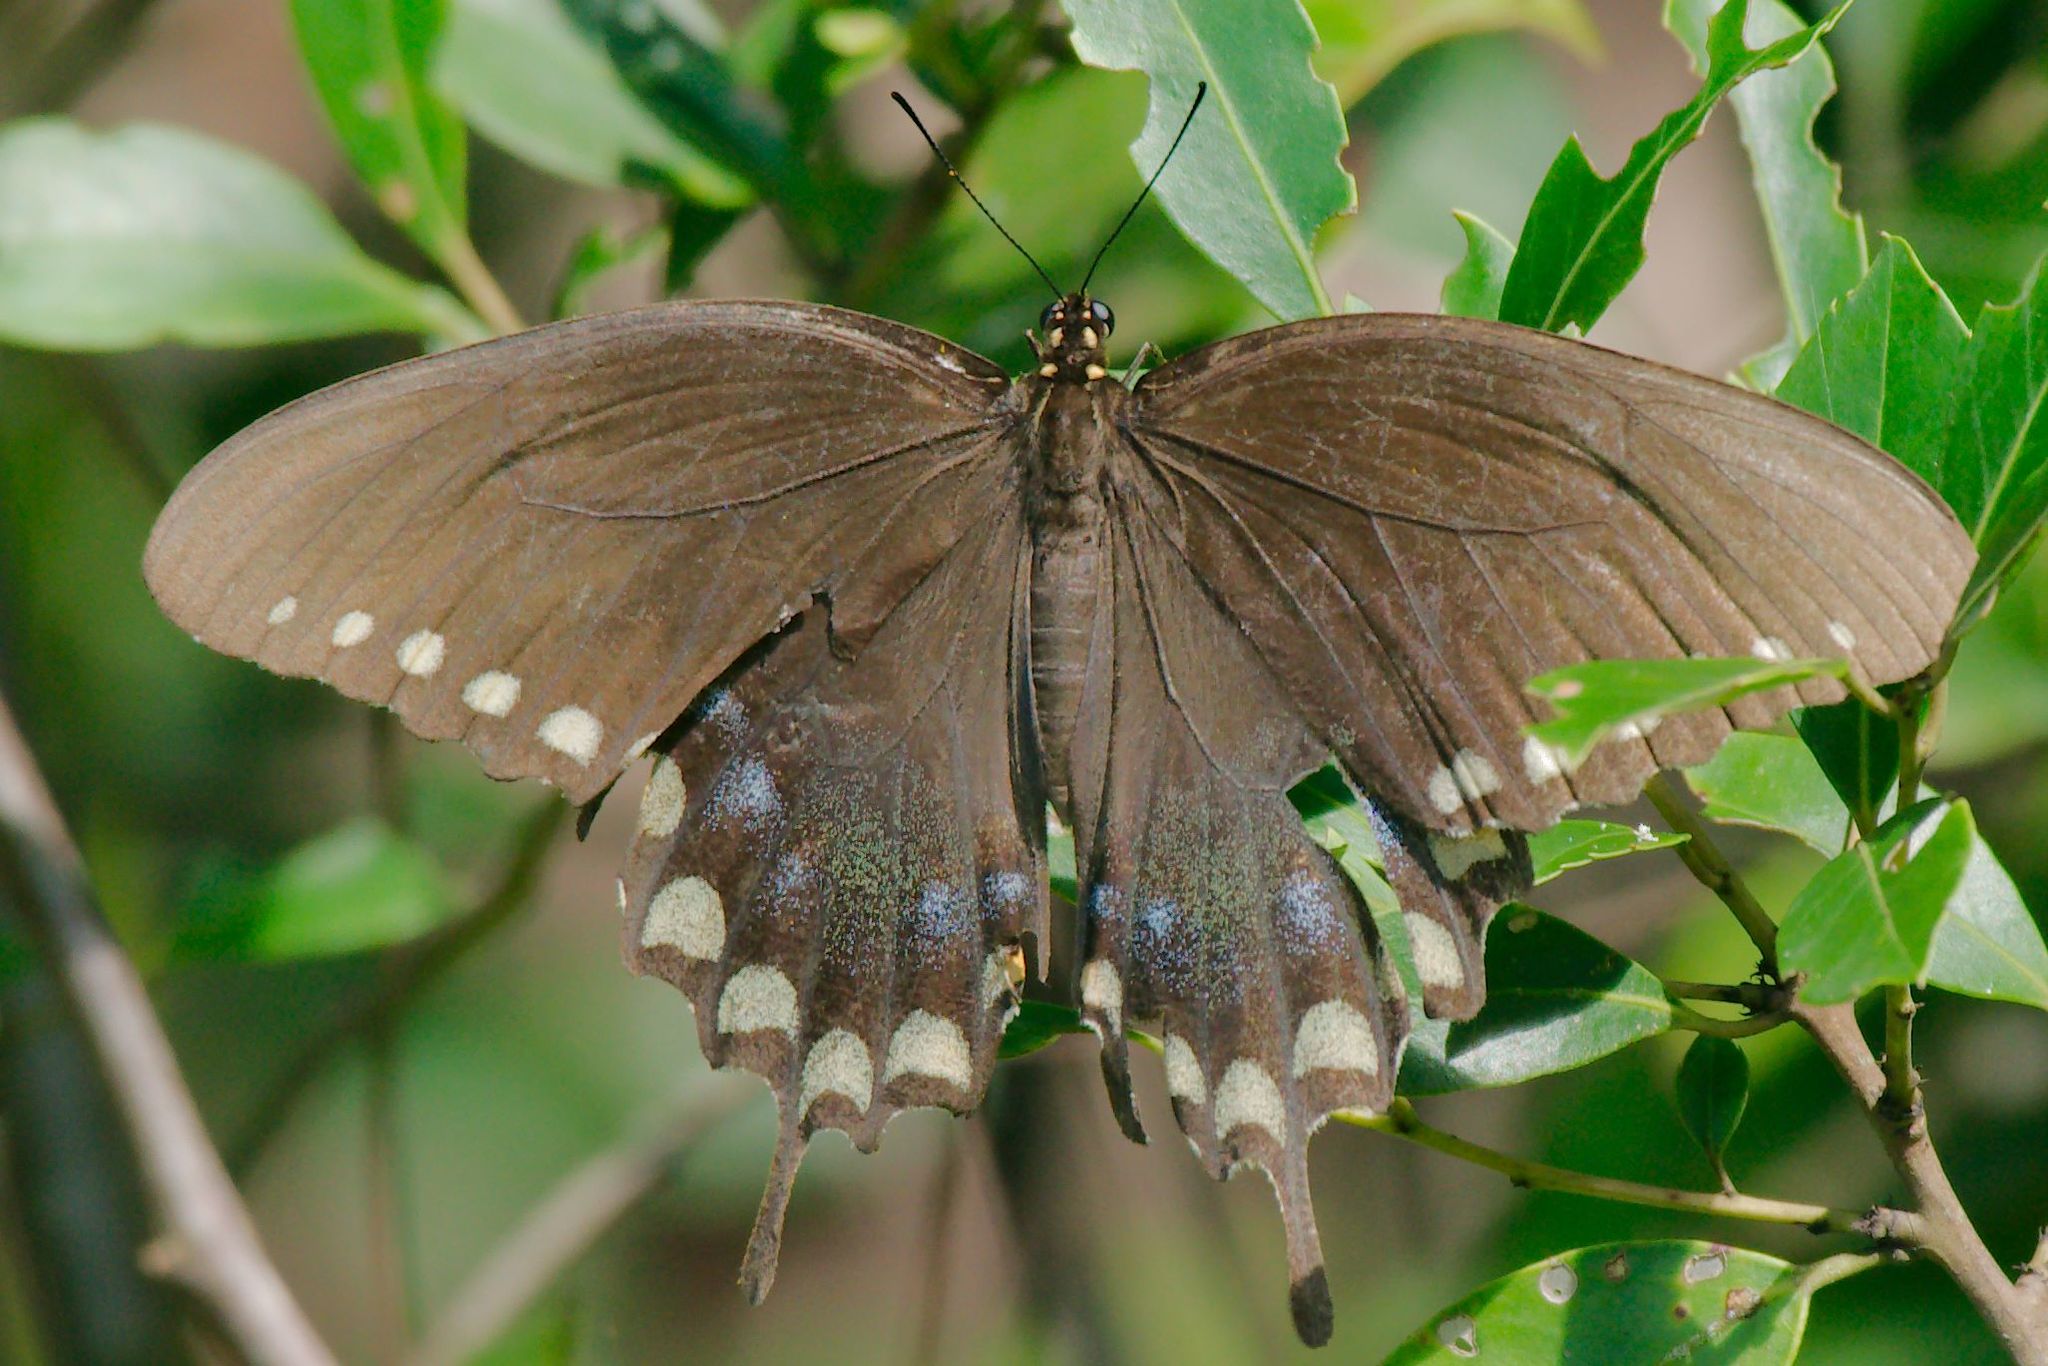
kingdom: Animalia
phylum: Arthropoda
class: Insecta
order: Lepidoptera
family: Papilionidae
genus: Papilio
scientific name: Papilio troilus
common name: Spicebush swallowtail
